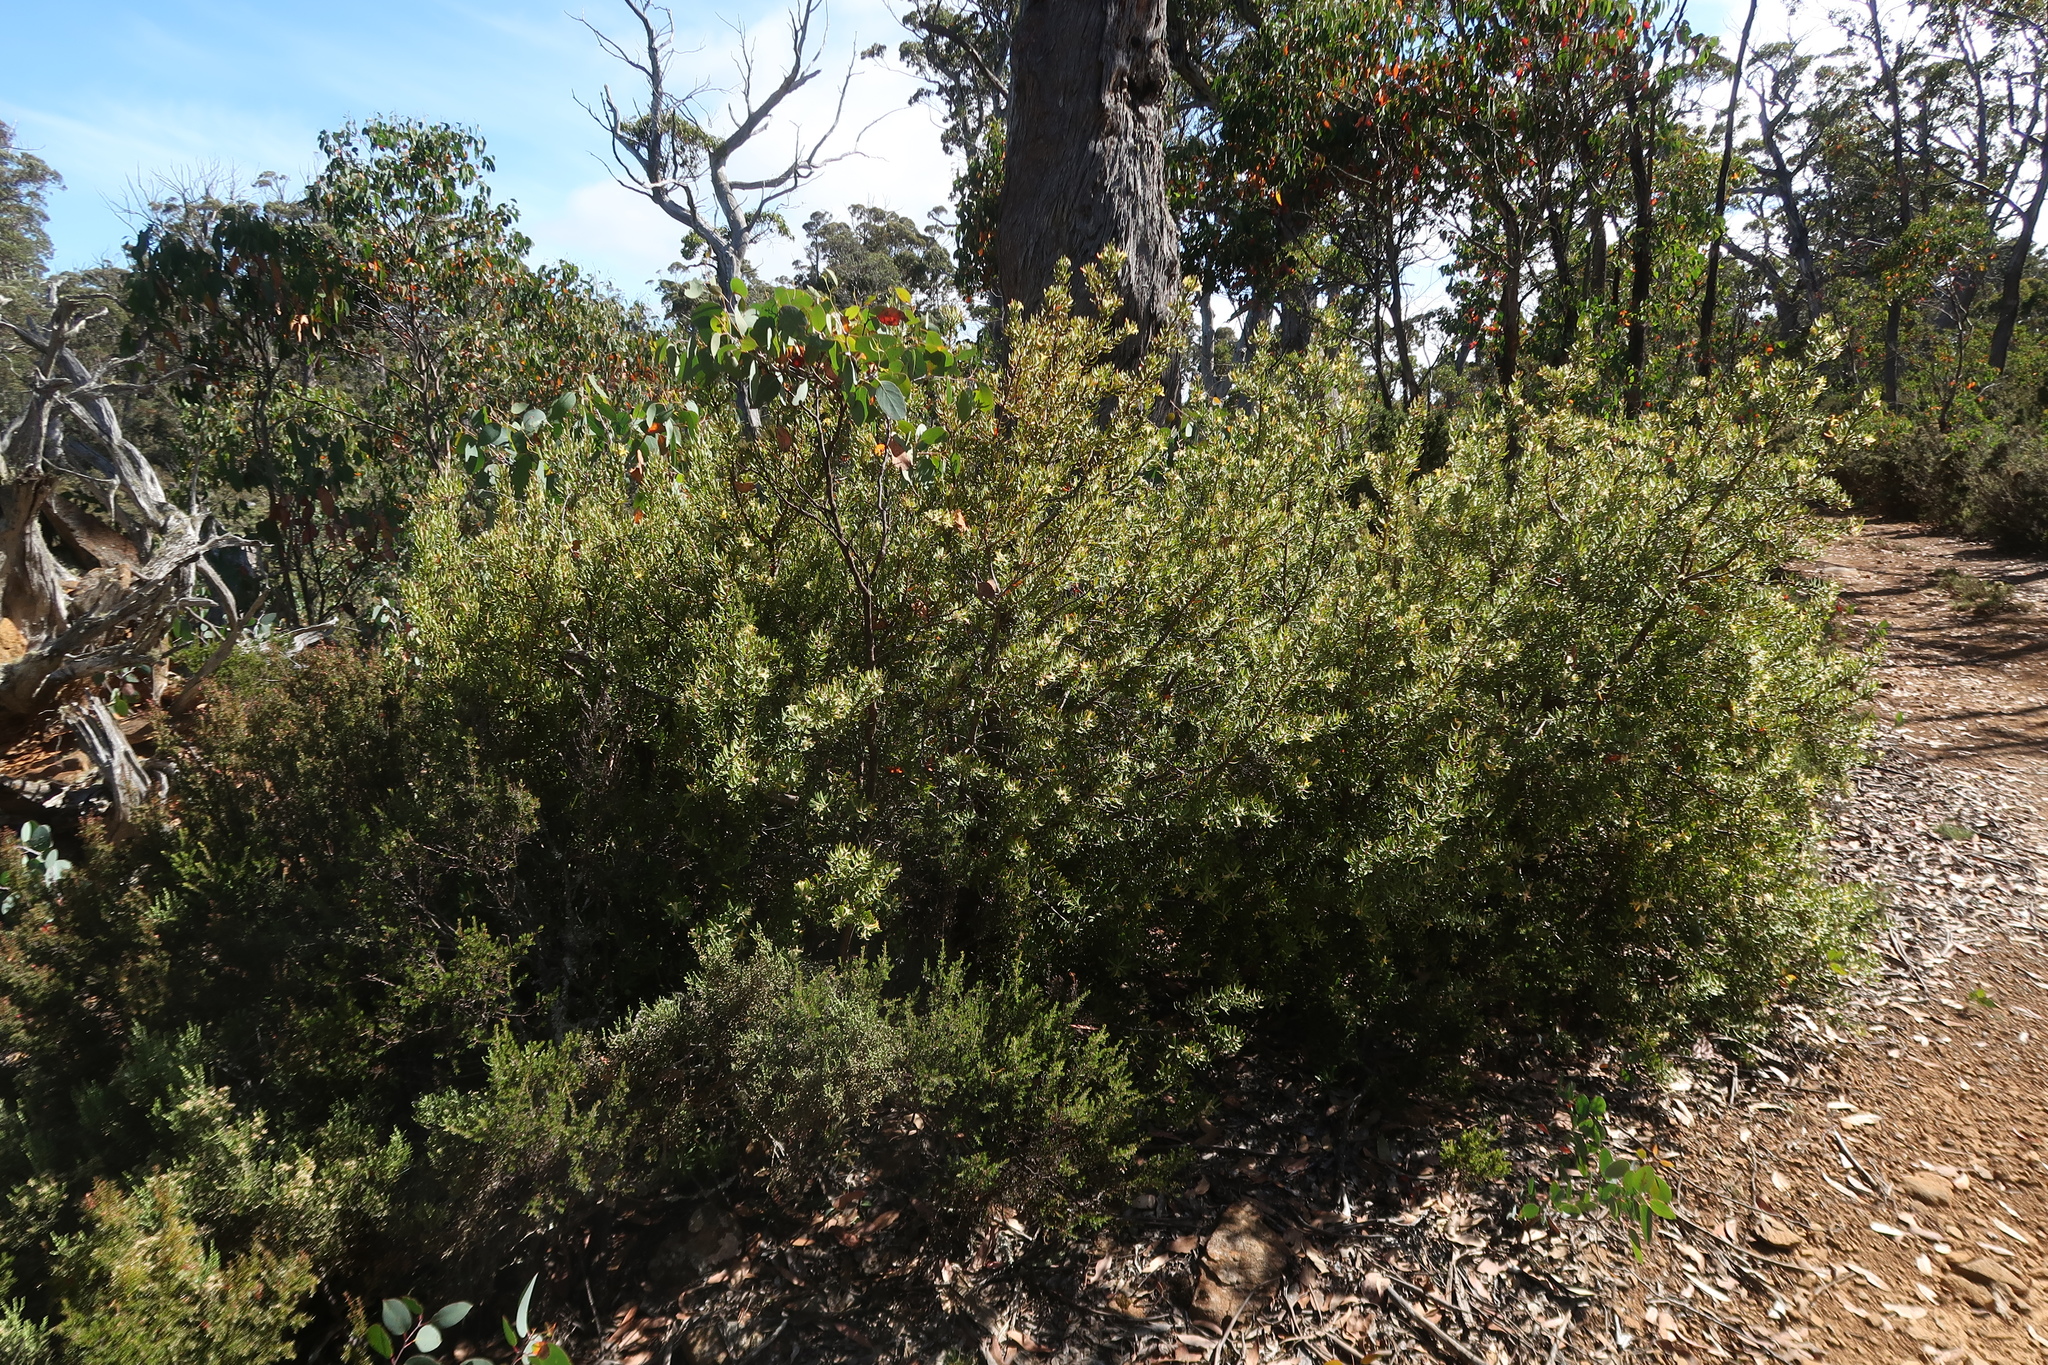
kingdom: Plantae
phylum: Tracheophyta
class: Magnoliopsida
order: Proteales
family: Proteaceae
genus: Persoonia
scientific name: Persoonia muelleri
